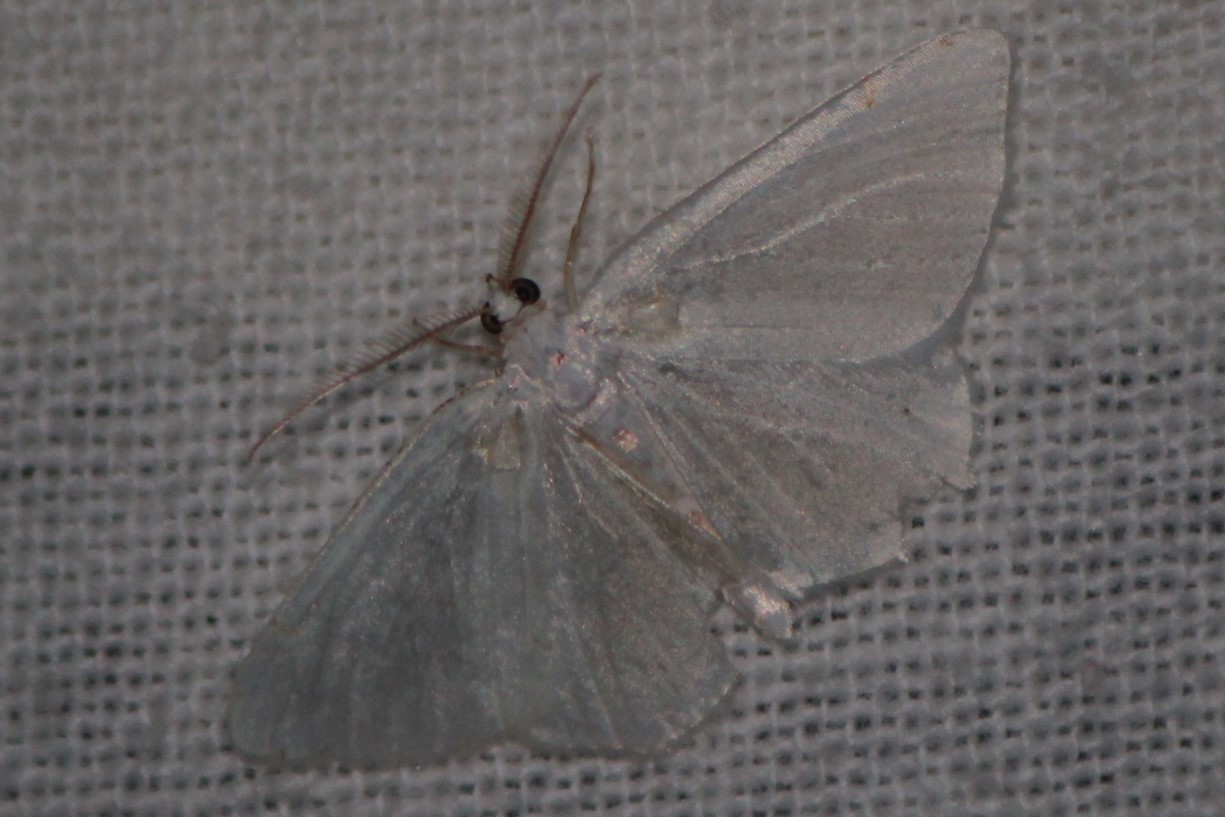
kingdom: Animalia
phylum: Arthropoda
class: Insecta
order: Lepidoptera
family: Geometridae
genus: Macaria
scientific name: Macaria pustularia
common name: Lesser maple spanworm moth
